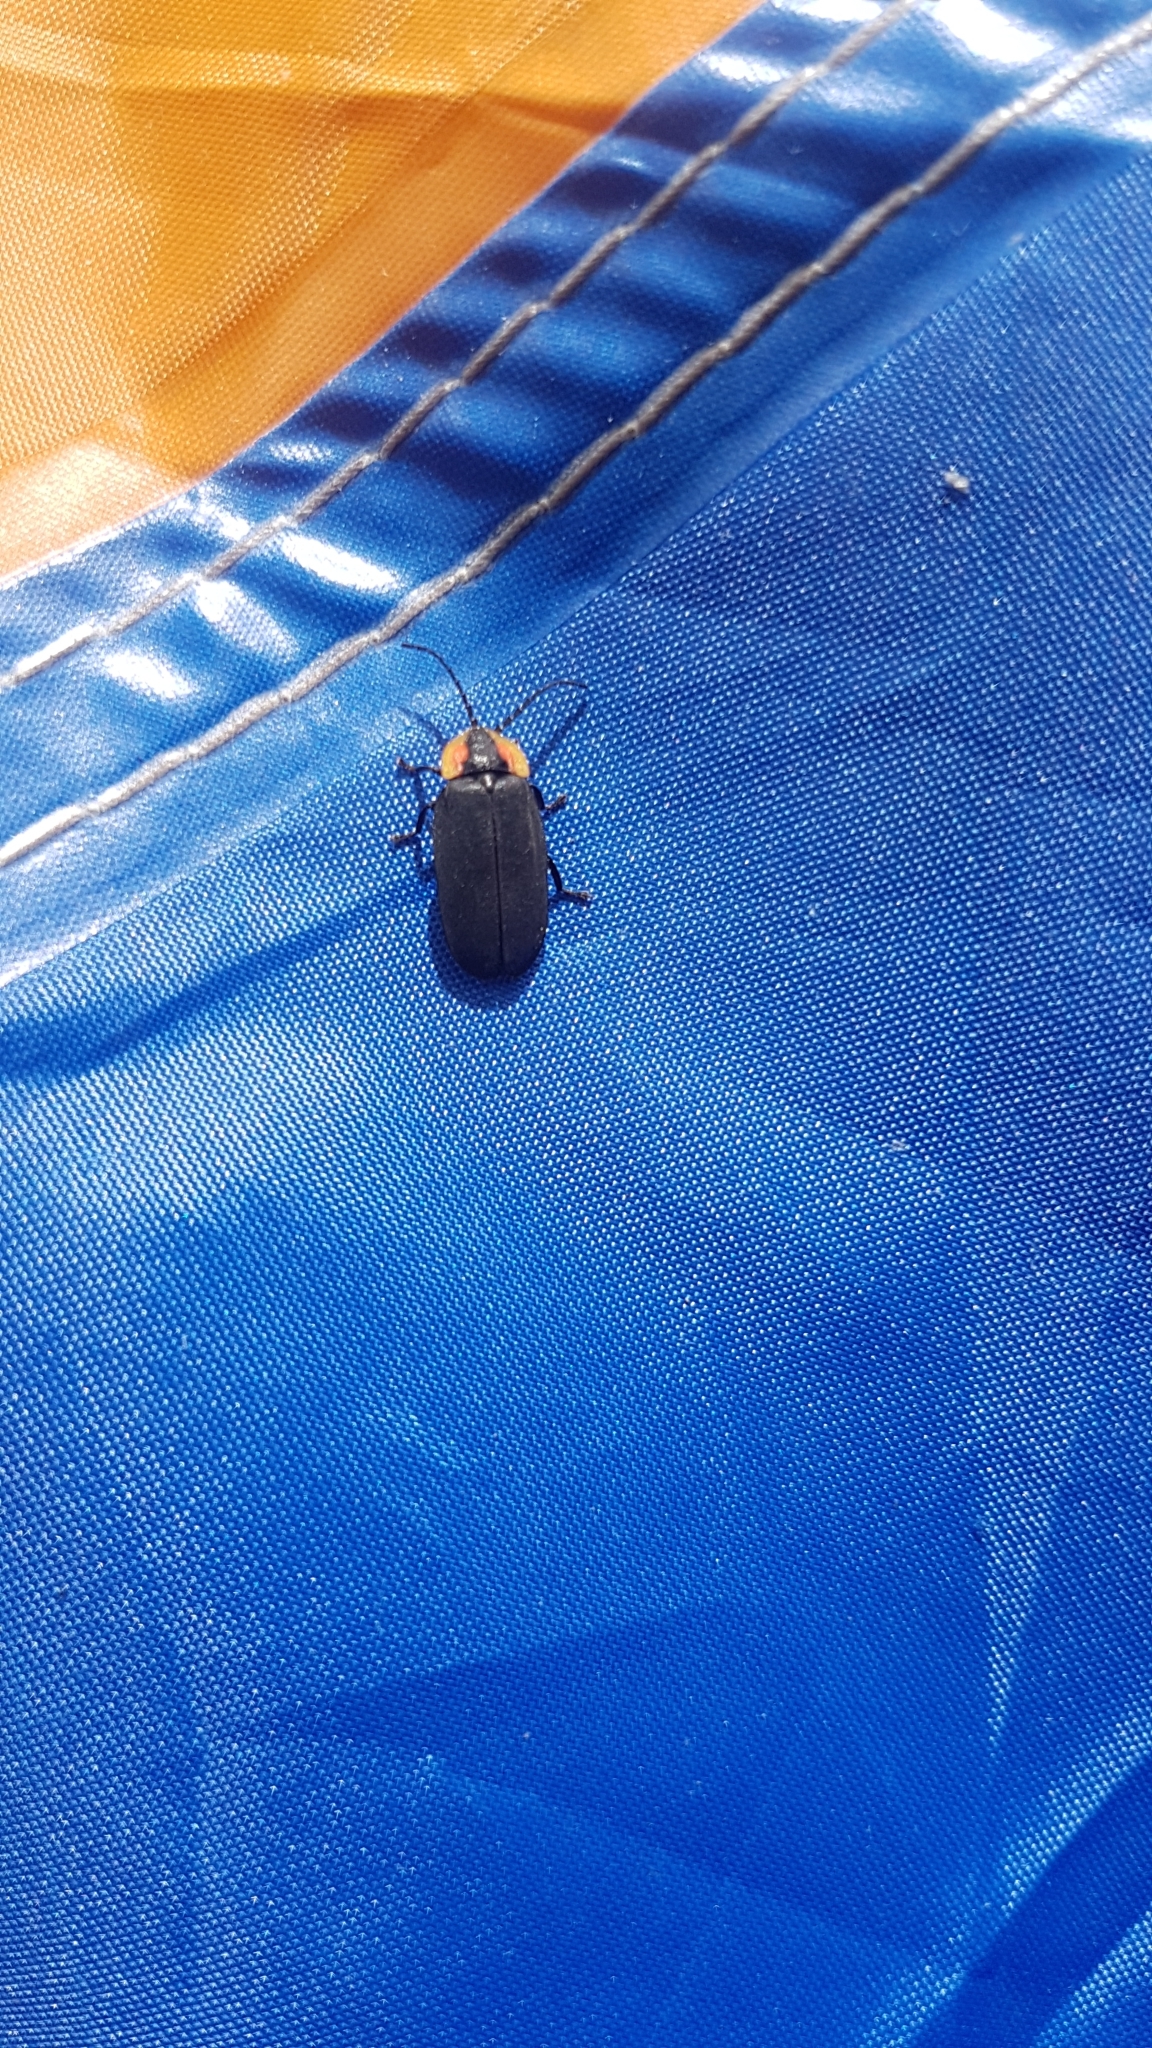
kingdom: Animalia
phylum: Arthropoda
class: Insecta
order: Coleoptera
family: Lampyridae
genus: Lucidota
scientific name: Lucidota atra
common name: Black firefly
